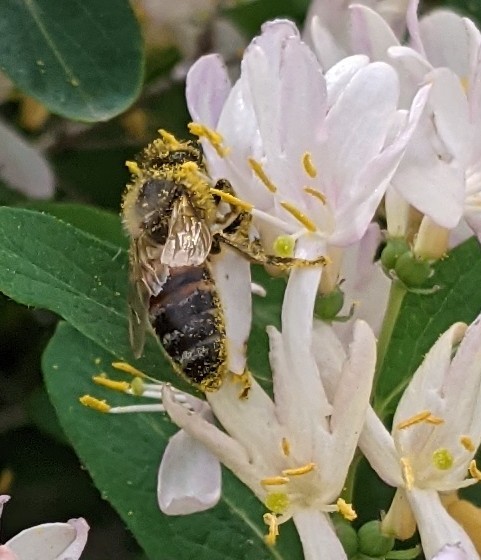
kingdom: Animalia
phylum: Arthropoda
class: Insecta
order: Hymenoptera
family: Apidae
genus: Apis
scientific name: Apis mellifera
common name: Honey bee
